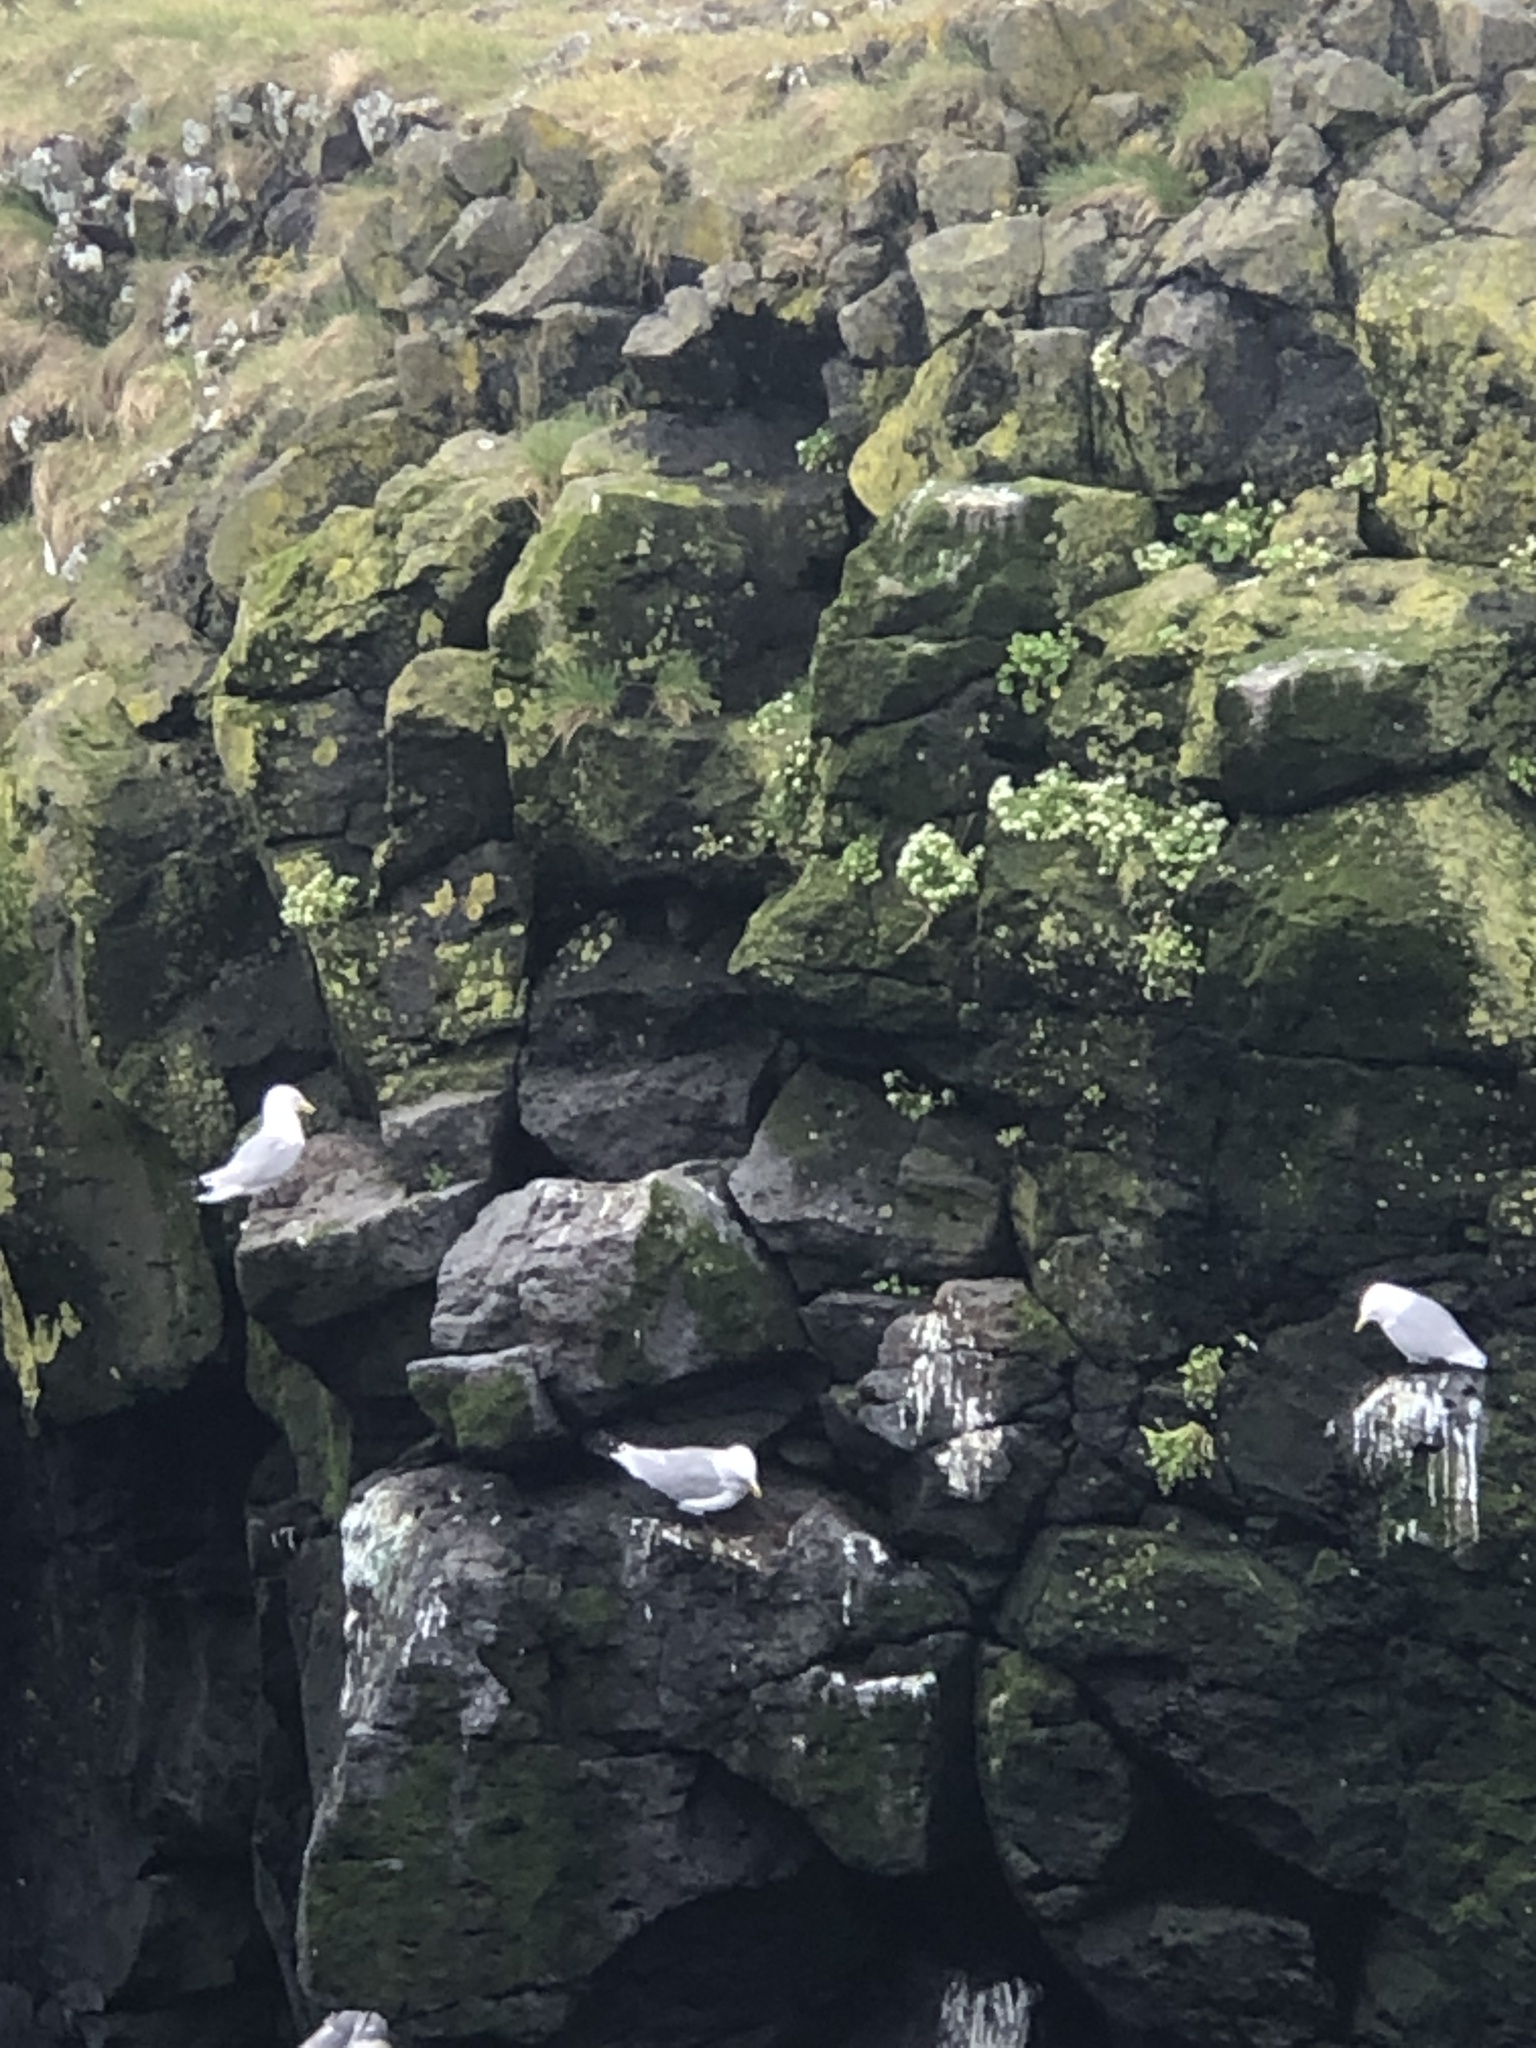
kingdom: Animalia
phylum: Chordata
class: Aves
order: Charadriiformes
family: Laridae
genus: Rissa
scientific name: Rissa tridactyla
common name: Black-legged kittiwake
